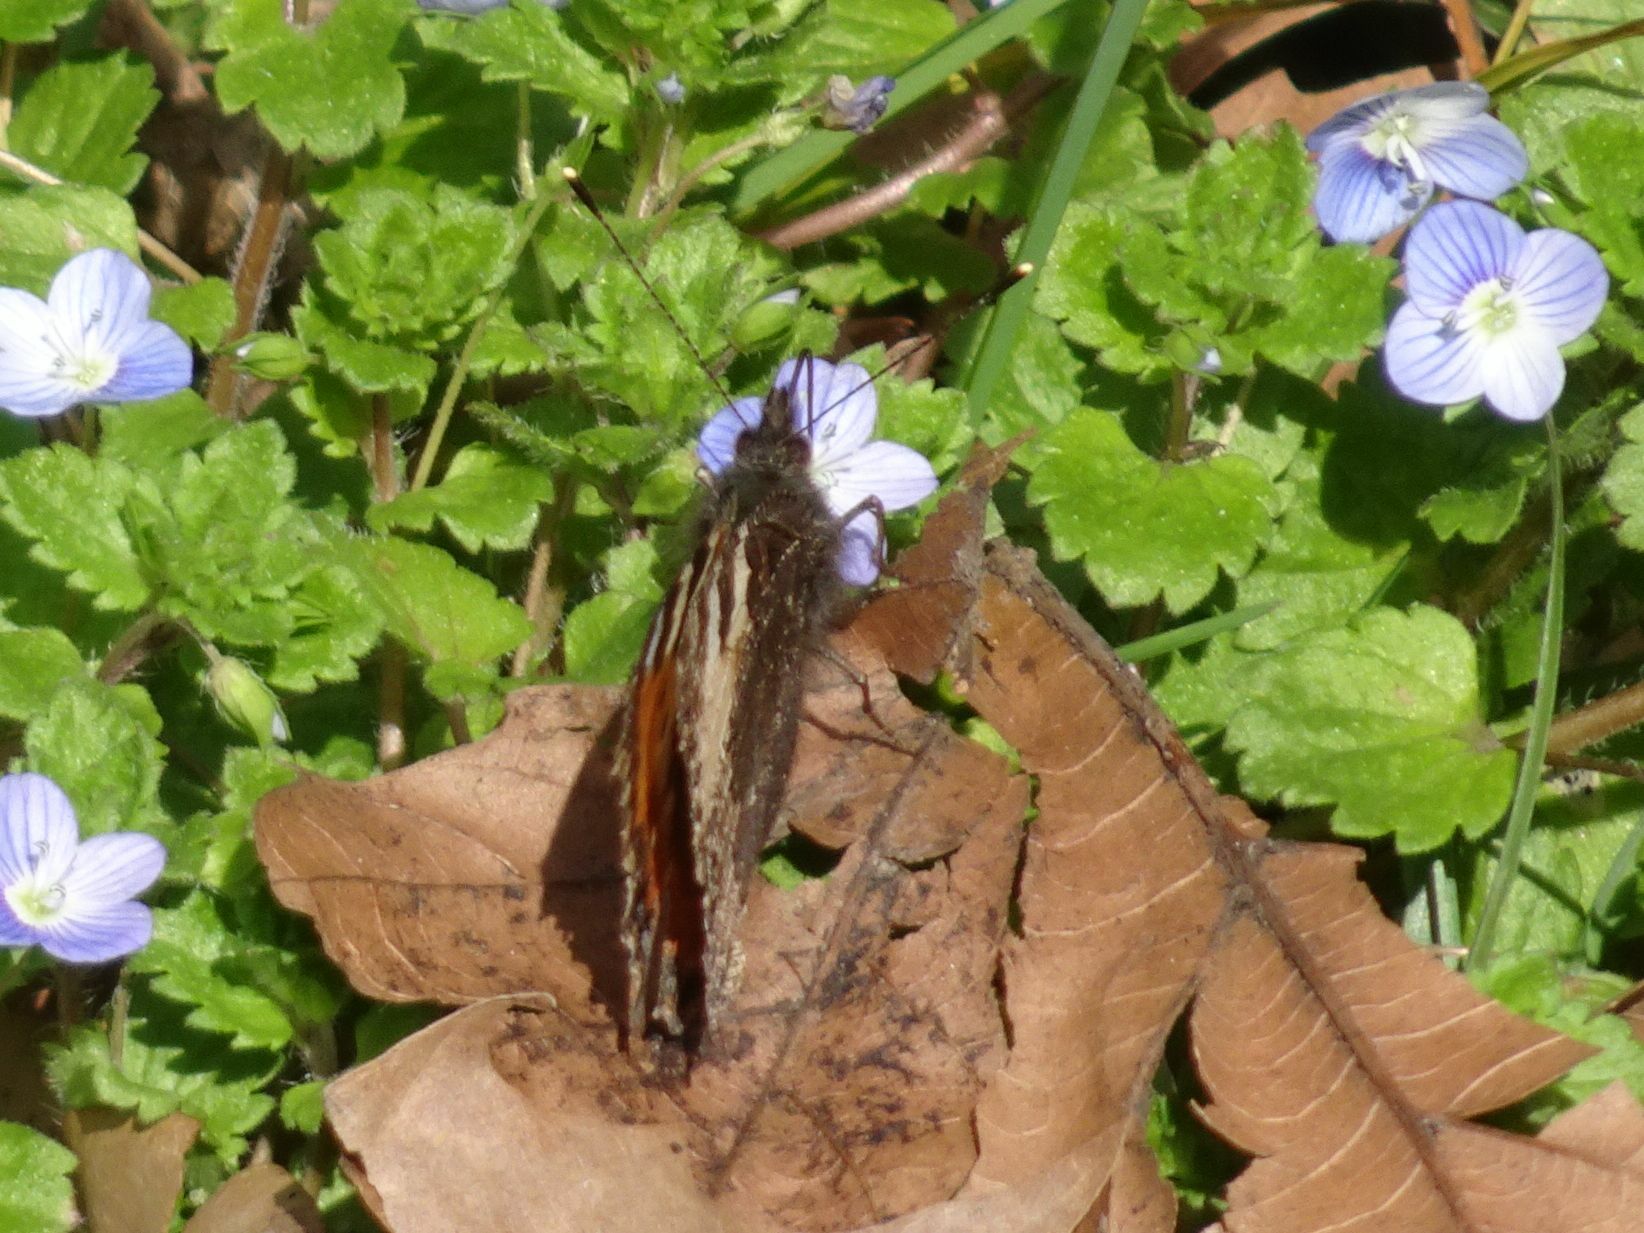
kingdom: Animalia
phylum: Arthropoda
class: Insecta
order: Lepidoptera
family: Nymphalidae
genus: Aglais
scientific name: Aglais urticae
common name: Small tortoiseshell
